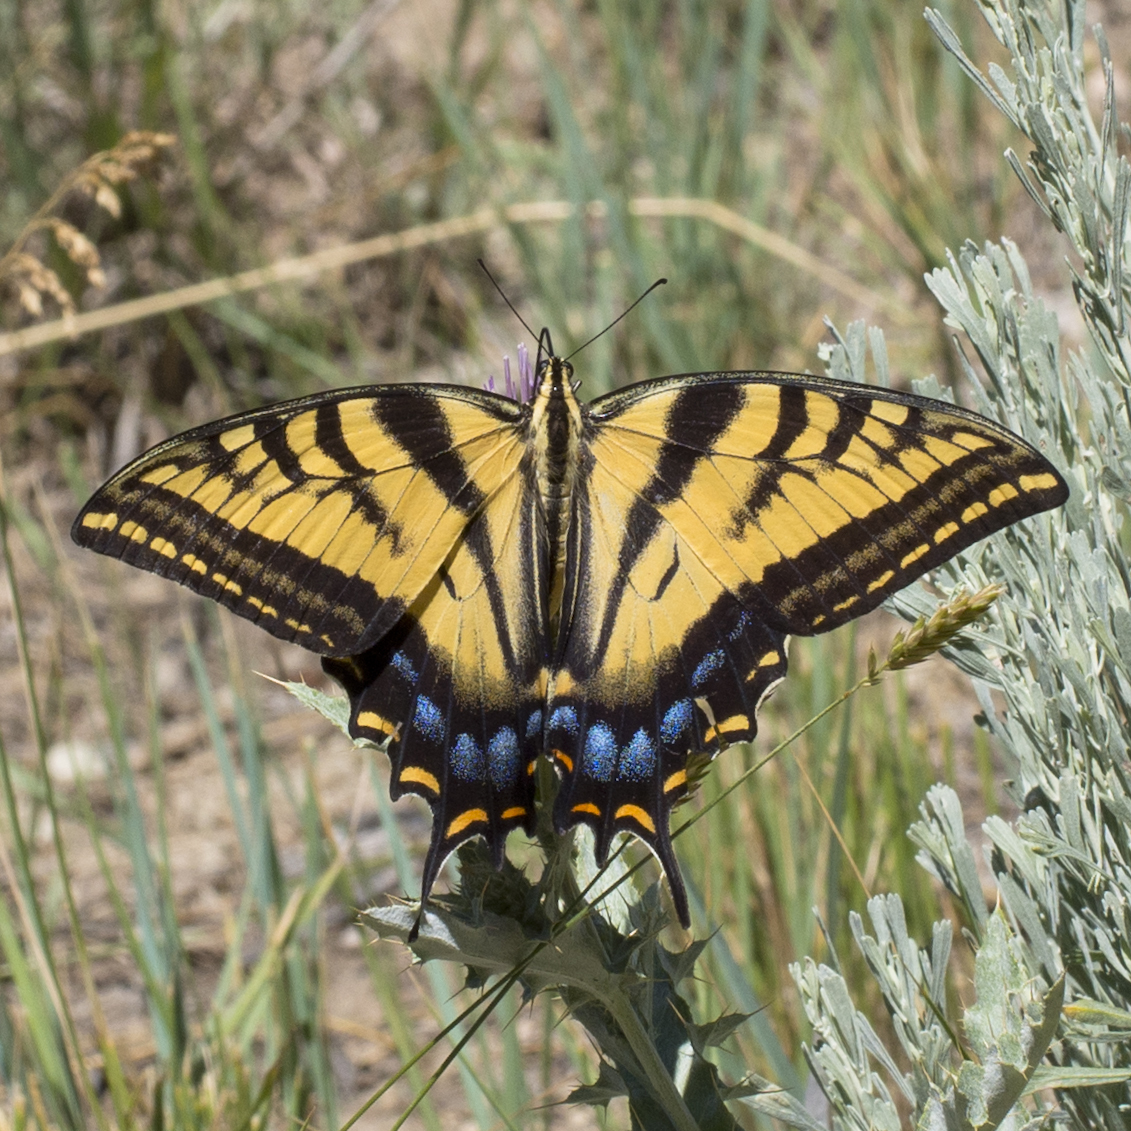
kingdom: Animalia
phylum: Arthropoda
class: Insecta
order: Lepidoptera
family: Papilionidae
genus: Papilio
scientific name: Papilio multicaudata
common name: Two-tailed tiger swallowtail
